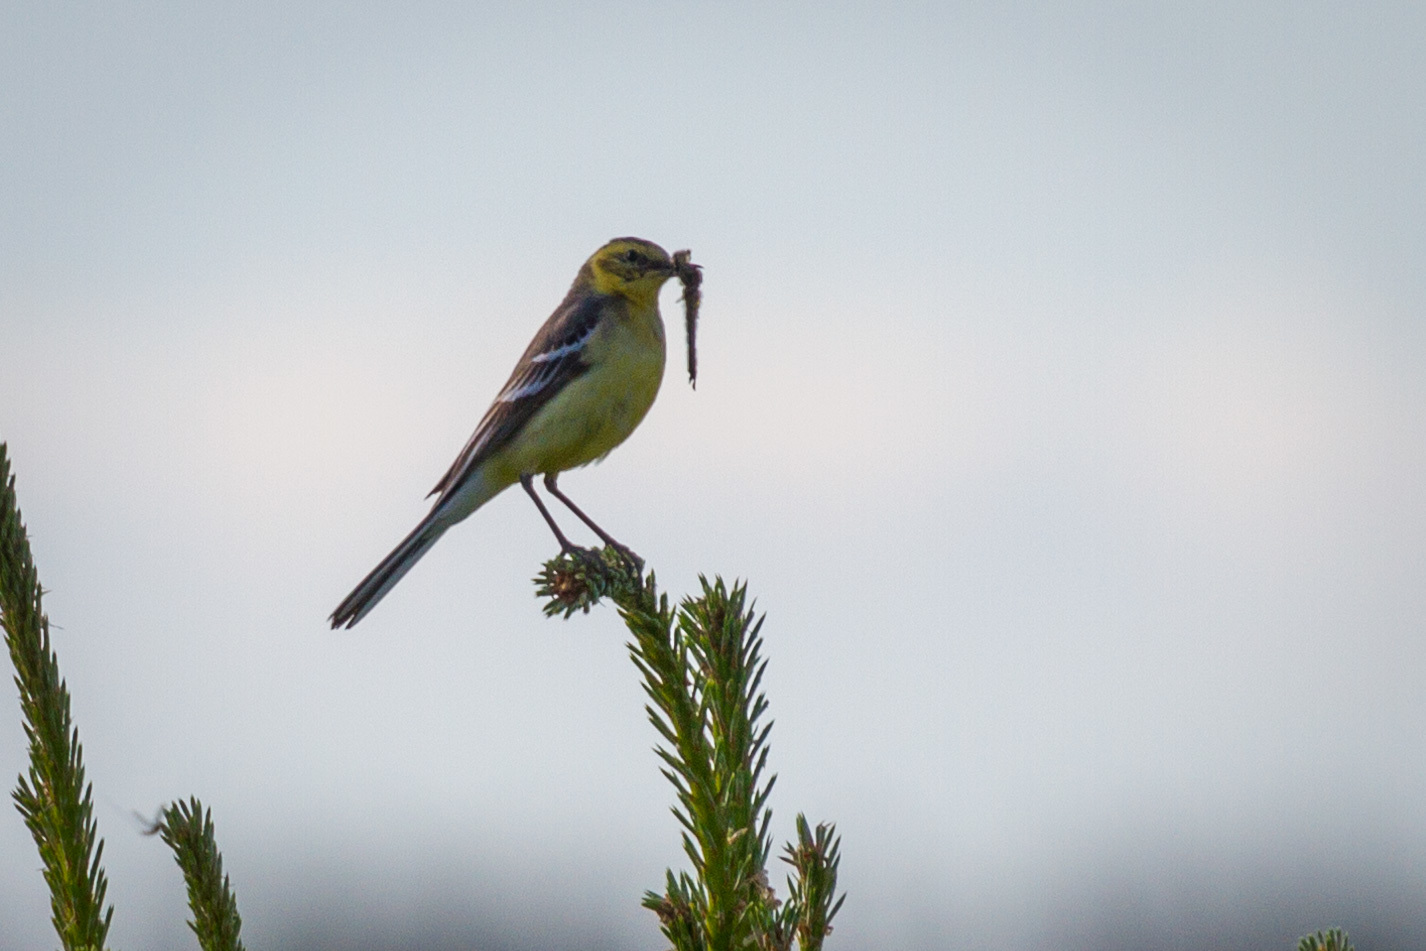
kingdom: Animalia
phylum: Chordata
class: Aves
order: Passeriformes
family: Motacillidae
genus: Motacilla
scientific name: Motacilla citreola
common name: Citrine wagtail
